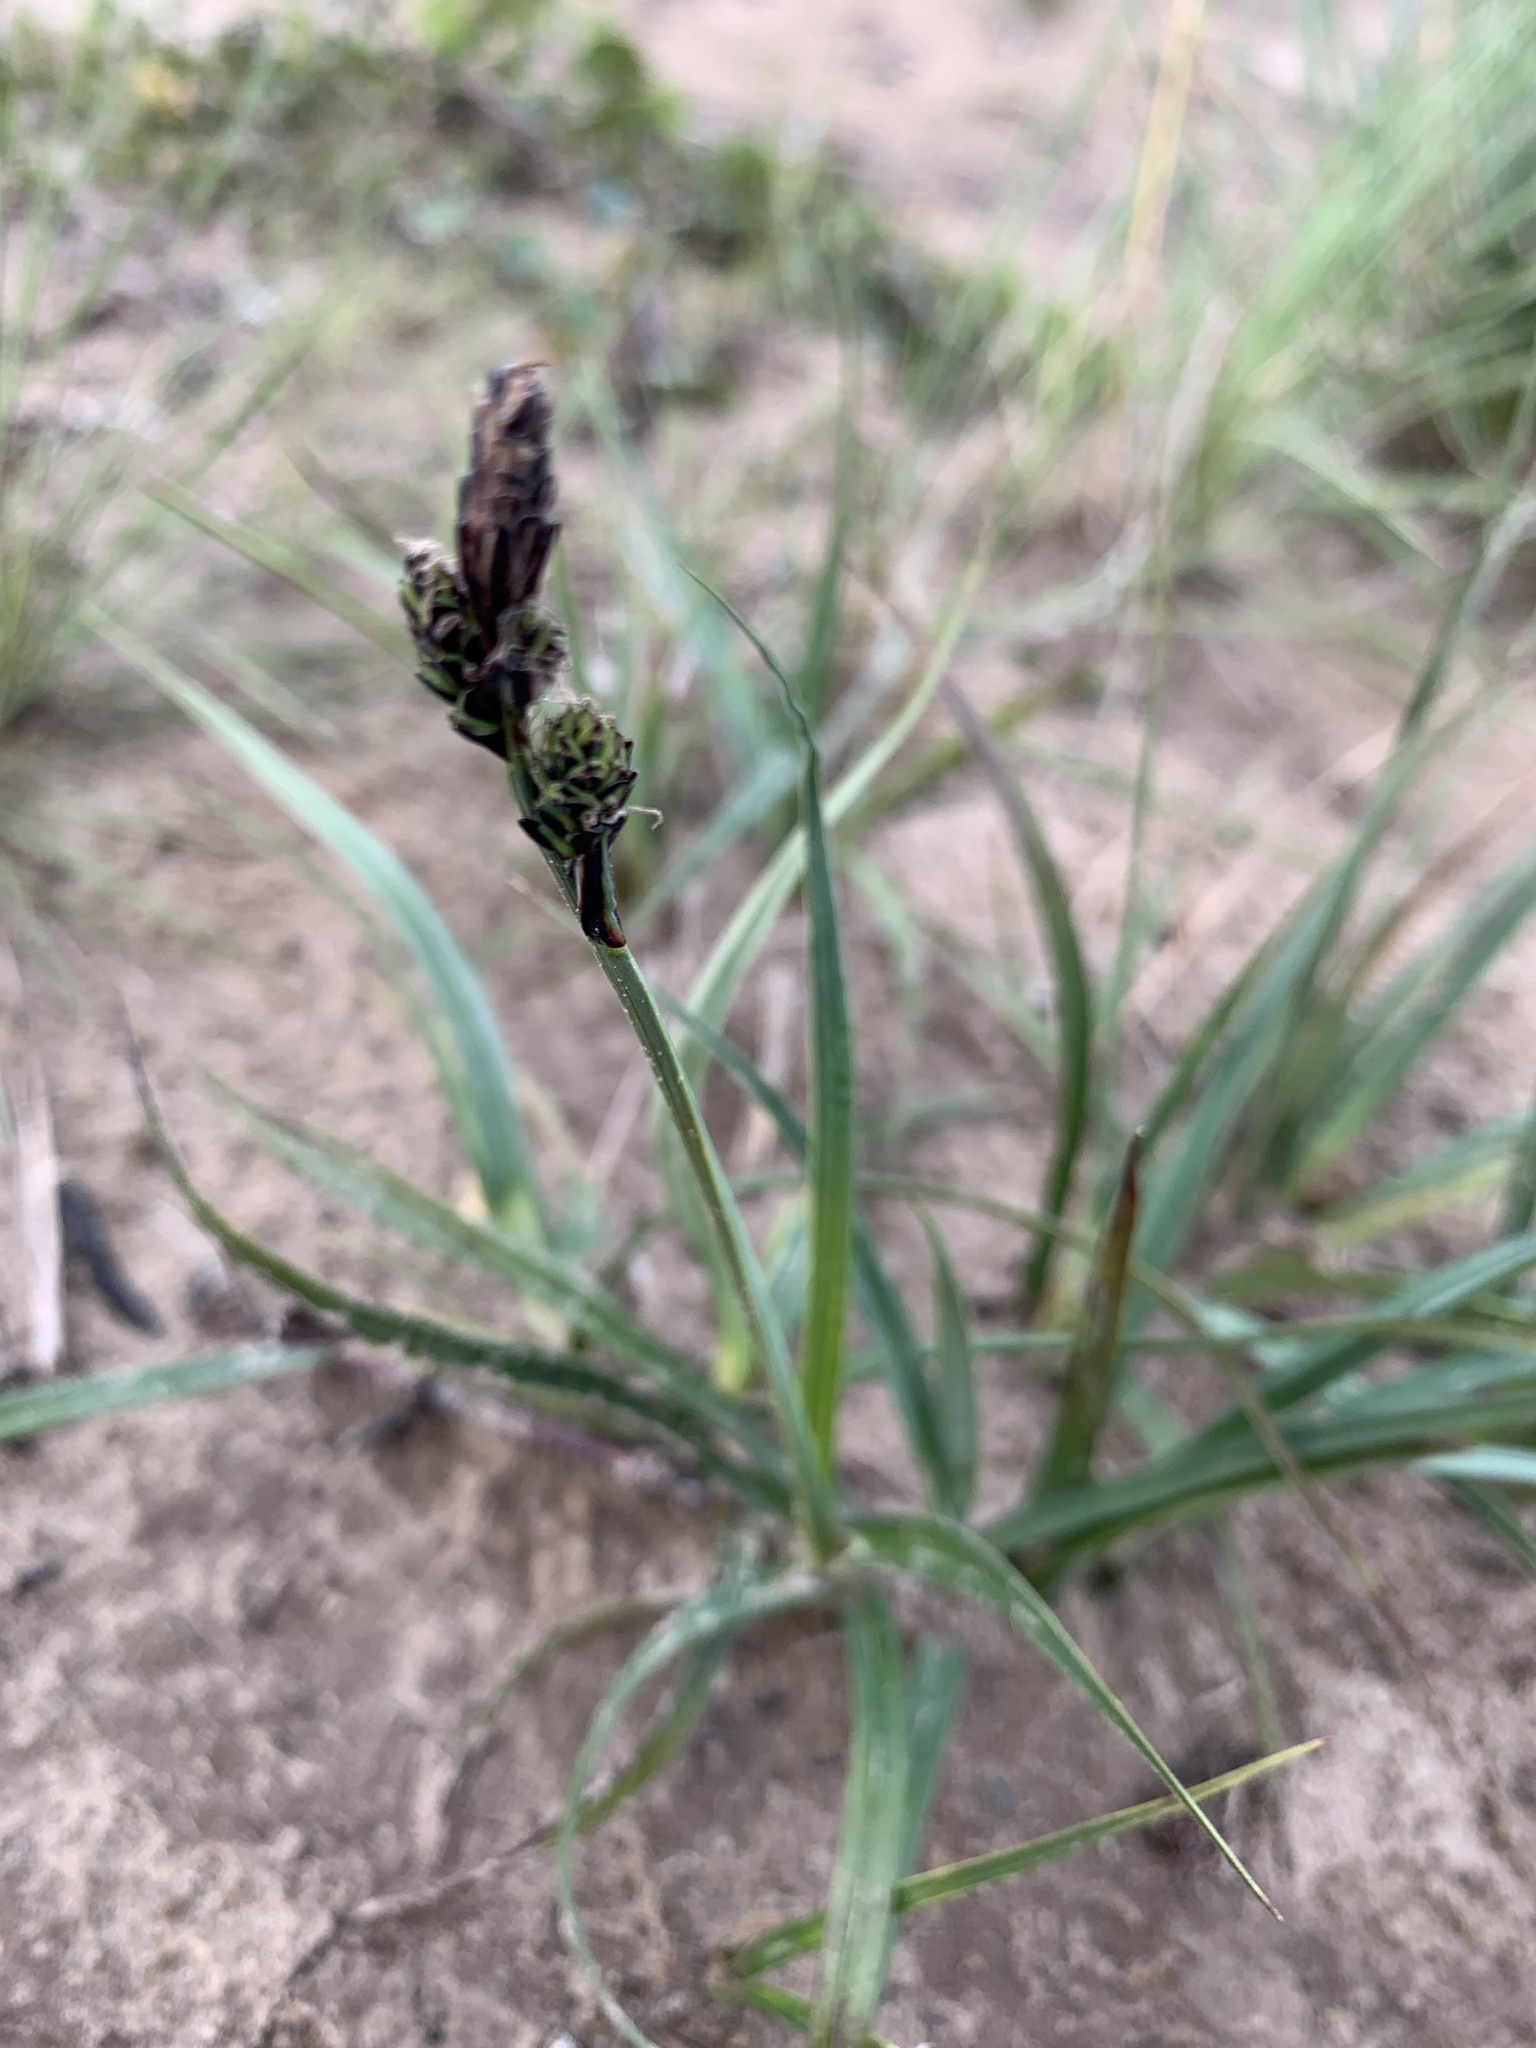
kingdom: Plantae
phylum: Tracheophyta
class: Liliopsida
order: Poales
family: Cyperaceae
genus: Carex
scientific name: Carex bigelowii
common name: Stiff sedge
